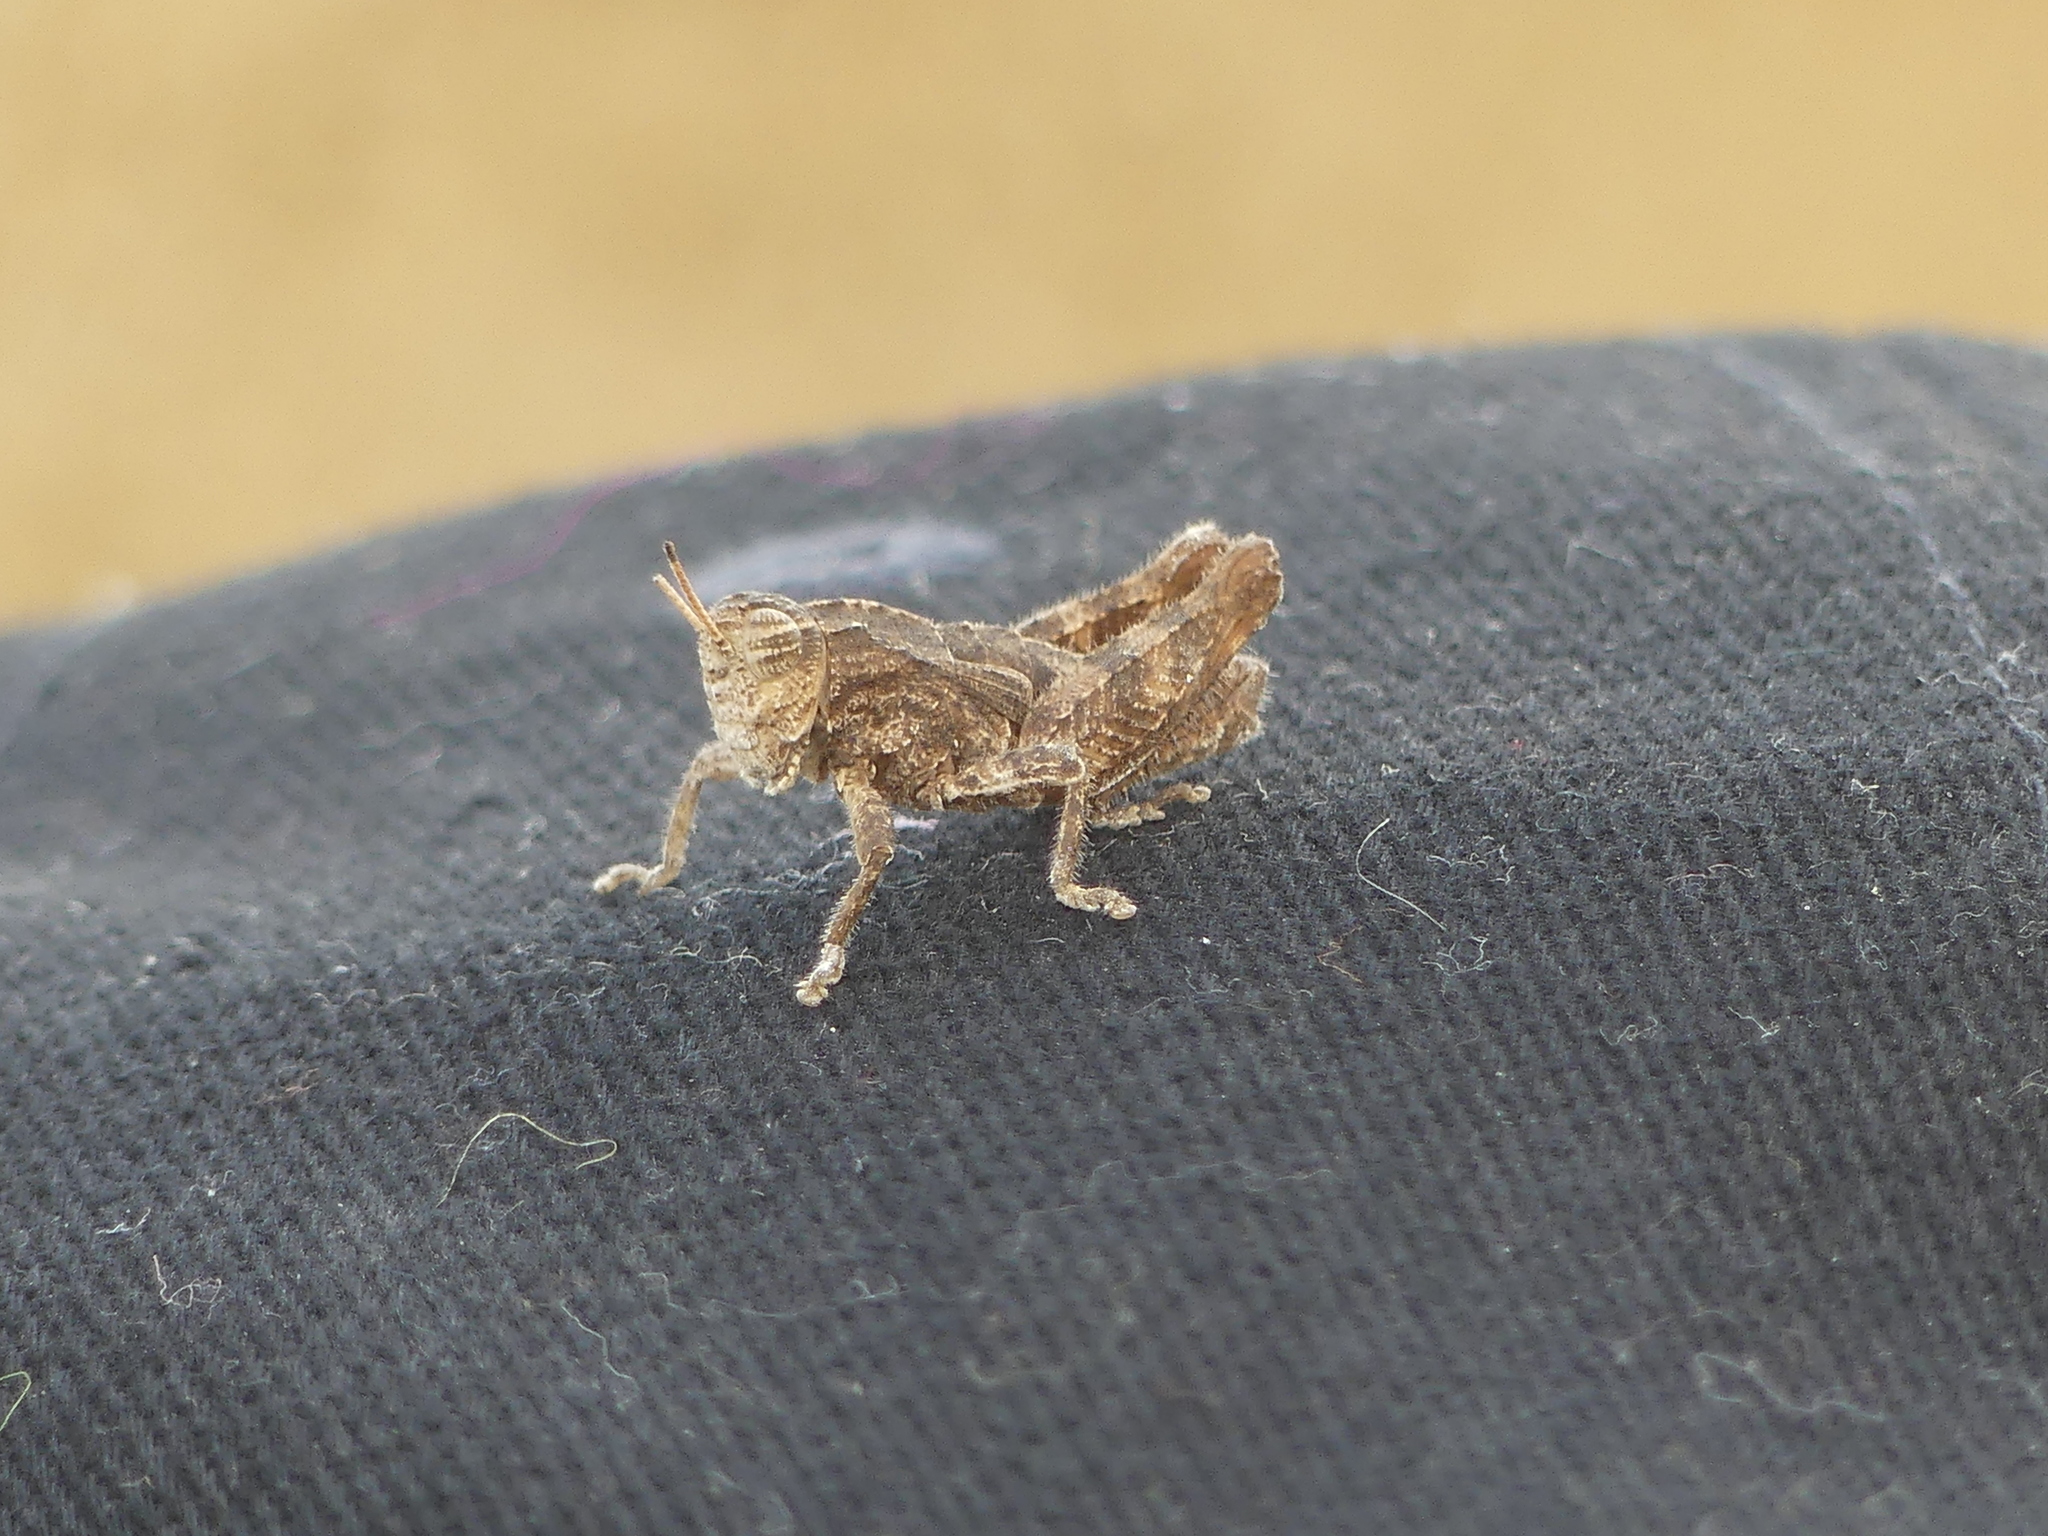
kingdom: Animalia
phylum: Arthropoda
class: Insecta
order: Orthoptera
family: Acrididae
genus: Sphenophyma
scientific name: Sphenophyma rugulosa
